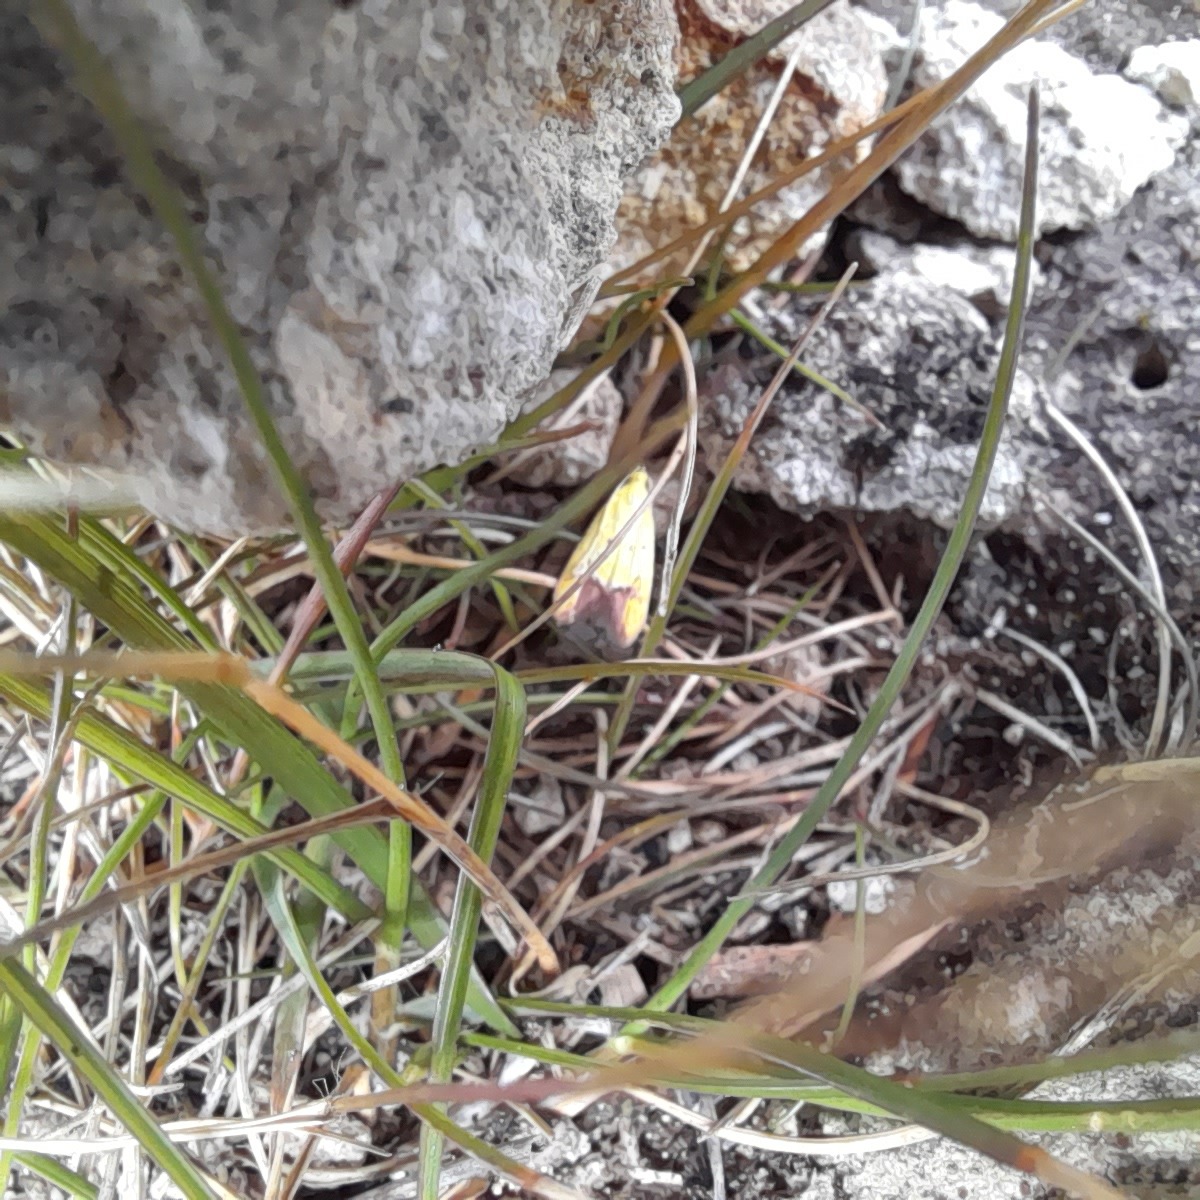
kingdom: Animalia
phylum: Arthropoda
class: Insecta
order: Lepidoptera
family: Oecophoridae
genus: Gymnobathra
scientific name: Gymnobathra flavidella
